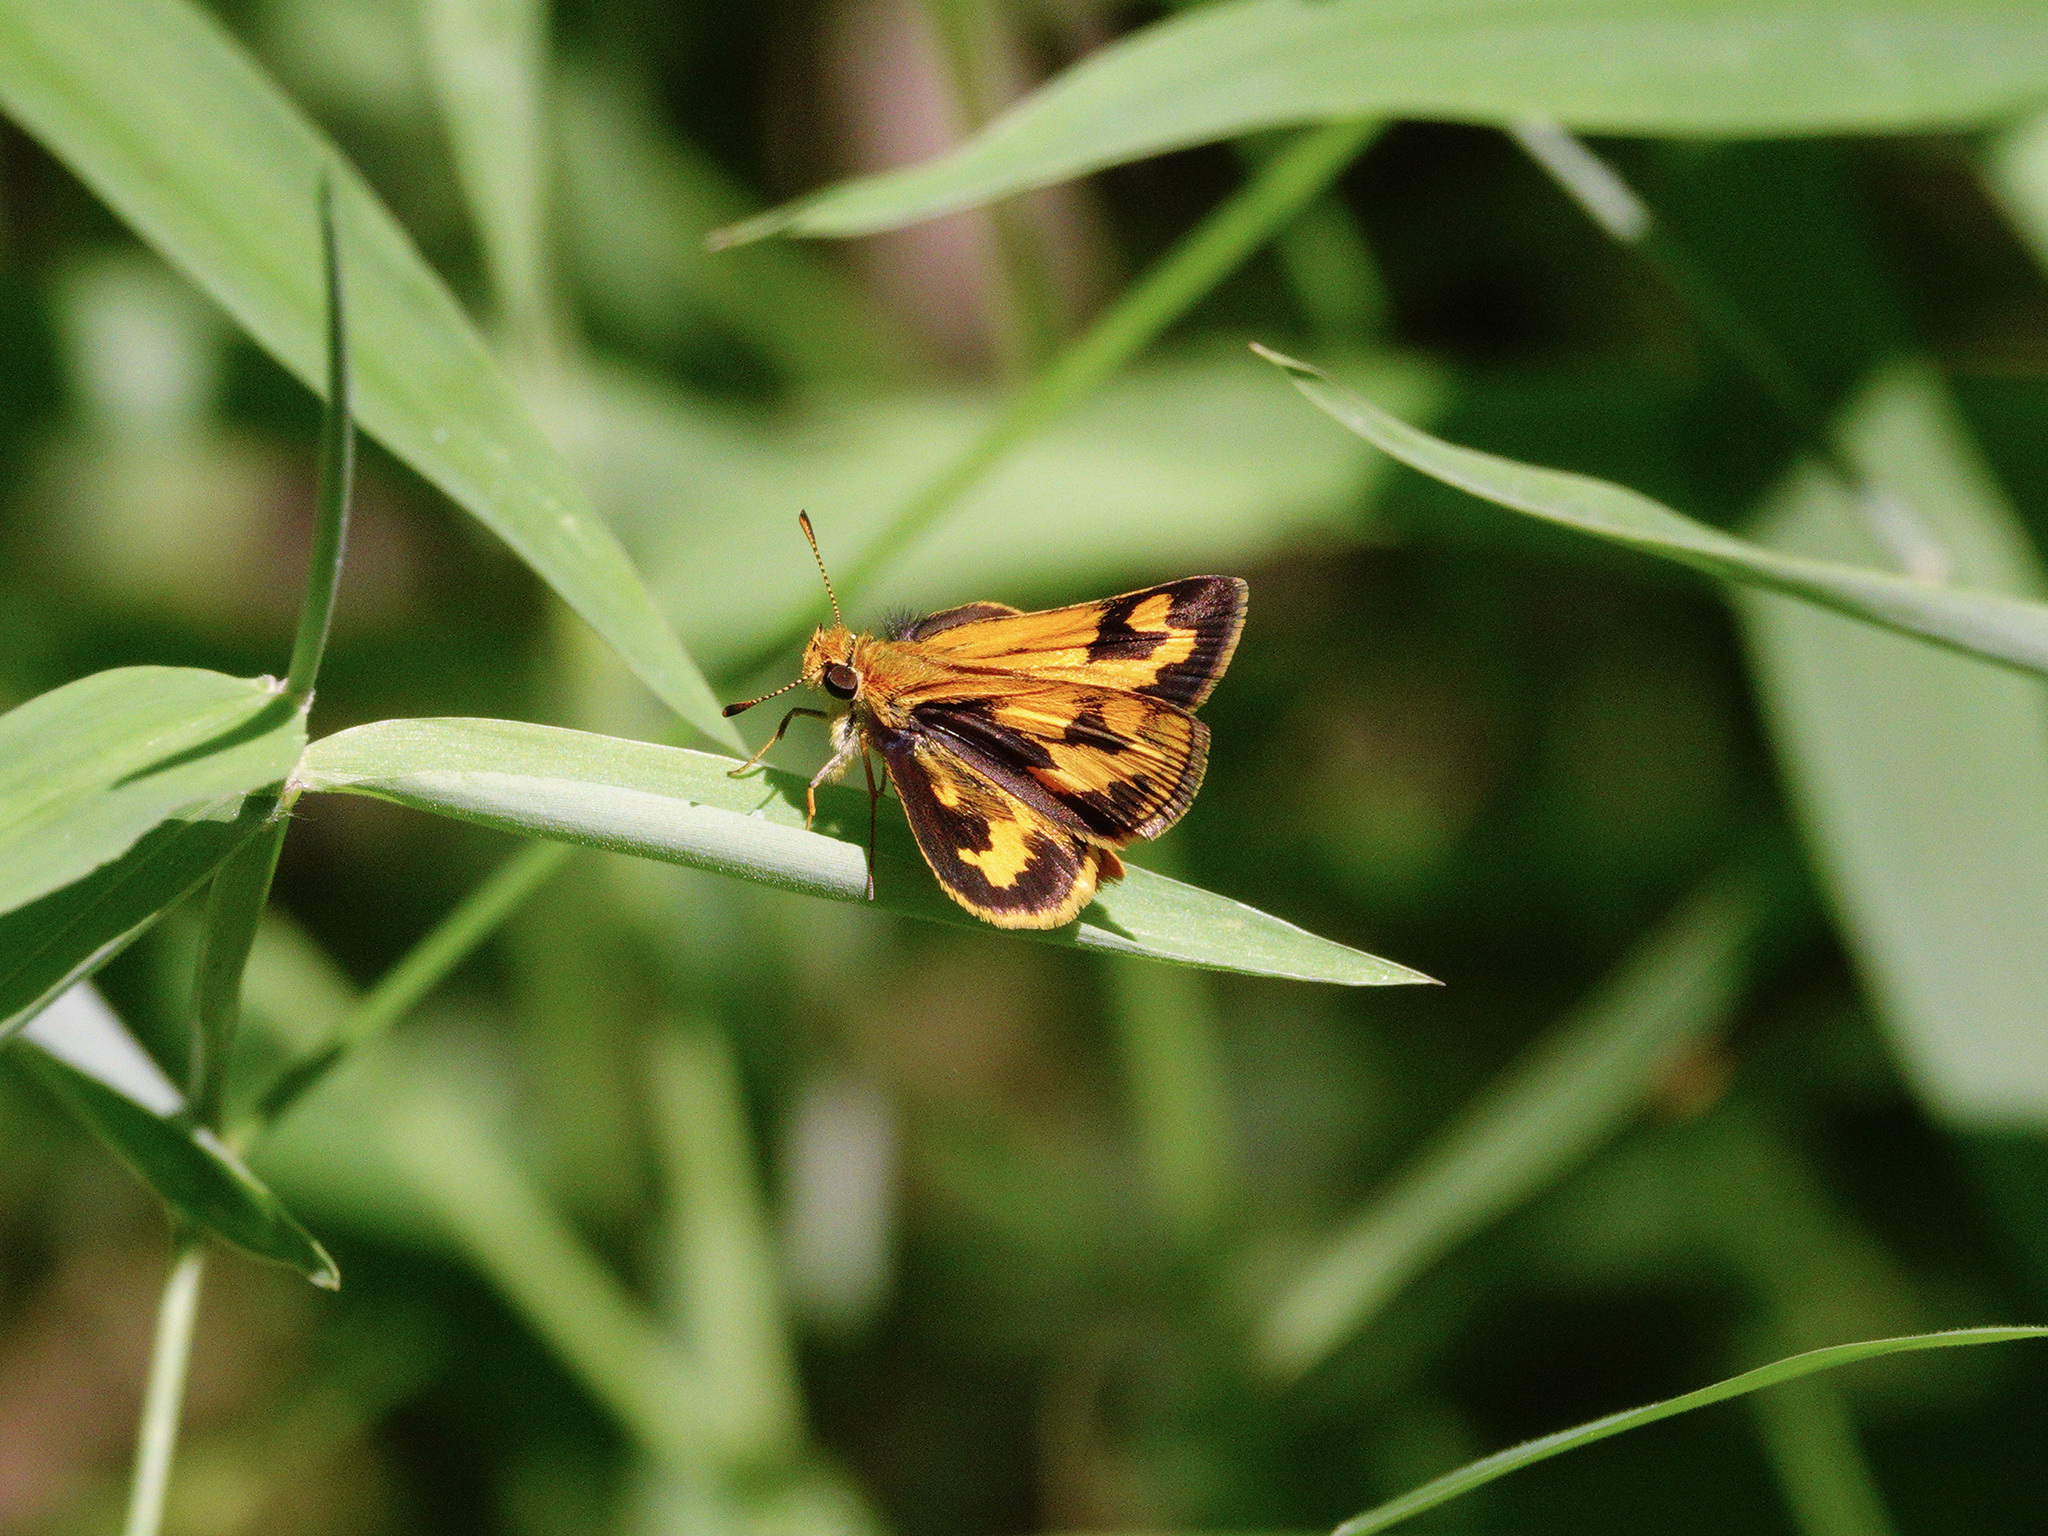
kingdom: Animalia
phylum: Arthropoda
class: Insecta
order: Lepidoptera
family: Hesperiidae
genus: Taractrocera
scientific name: Taractrocera archias
